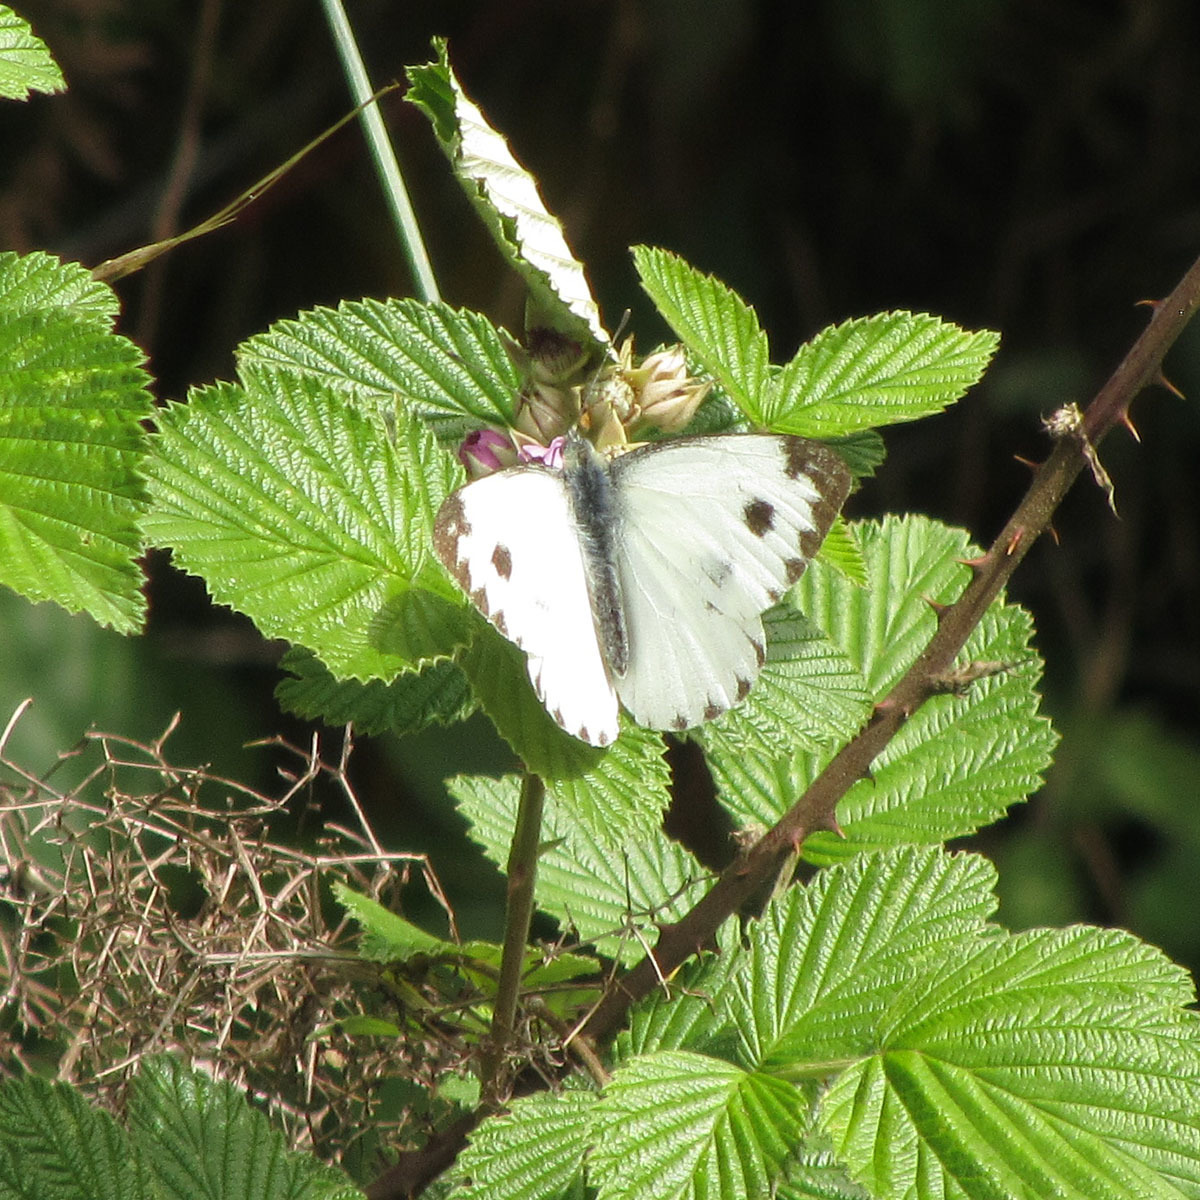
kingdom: Animalia
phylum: Arthropoda
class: Insecta
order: Lepidoptera
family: Pieridae
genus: Pieris
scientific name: Pieris canidia
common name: Indian cabbage white
